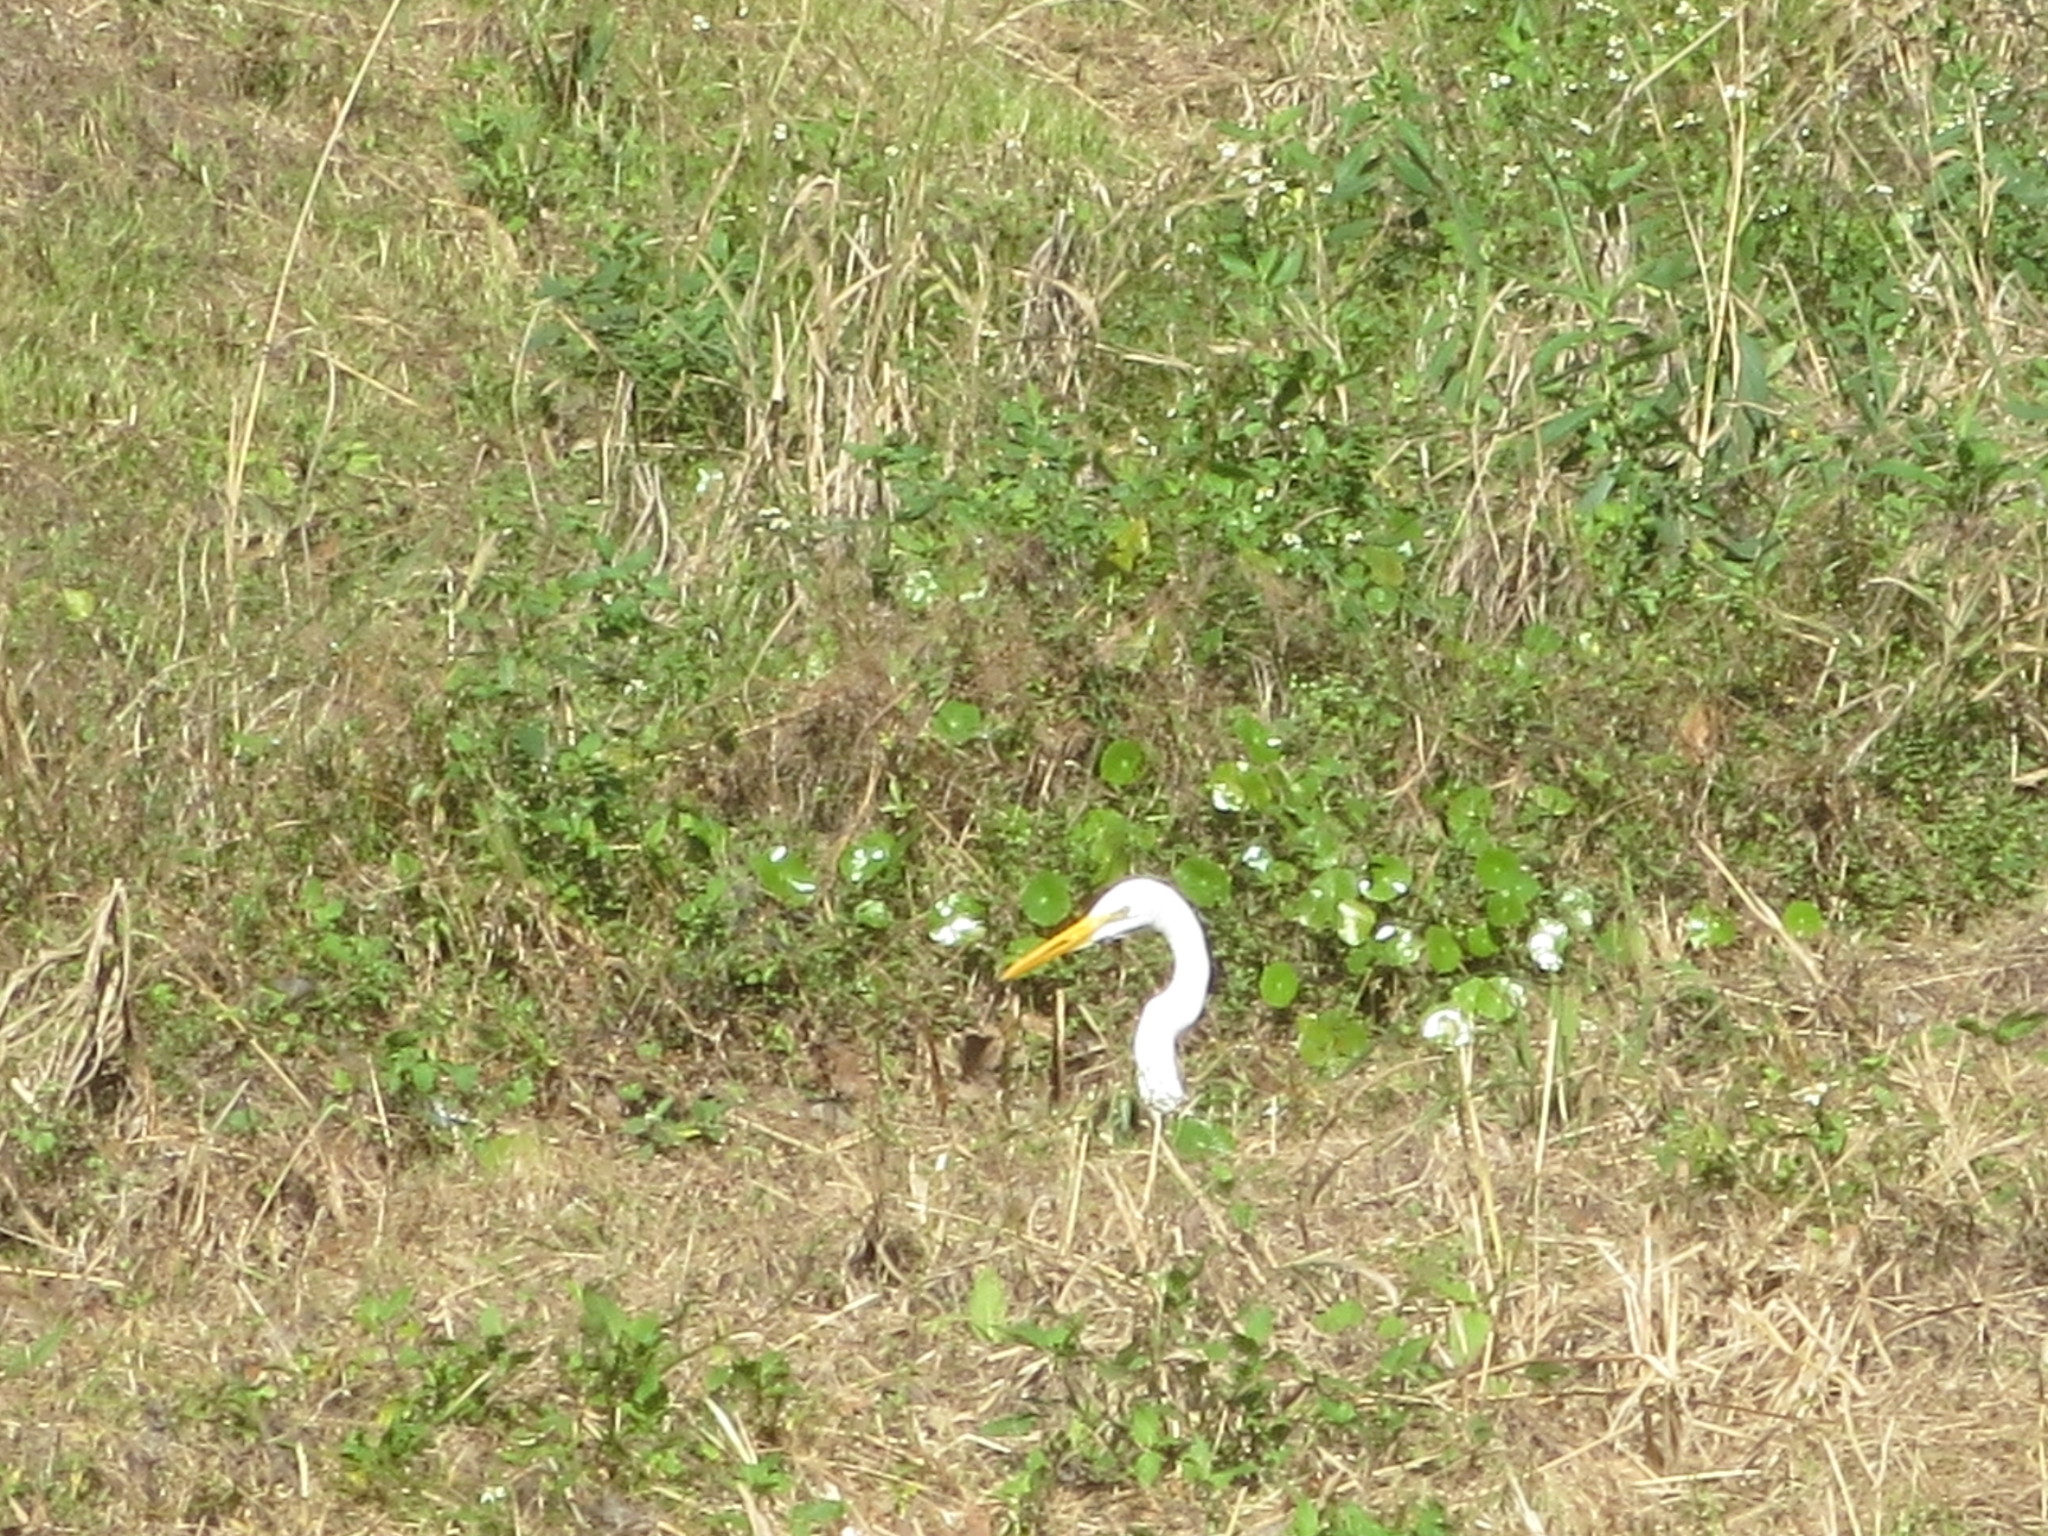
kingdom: Animalia
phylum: Chordata
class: Aves
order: Pelecaniformes
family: Ardeidae
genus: Ardea
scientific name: Ardea alba
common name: Great egret
